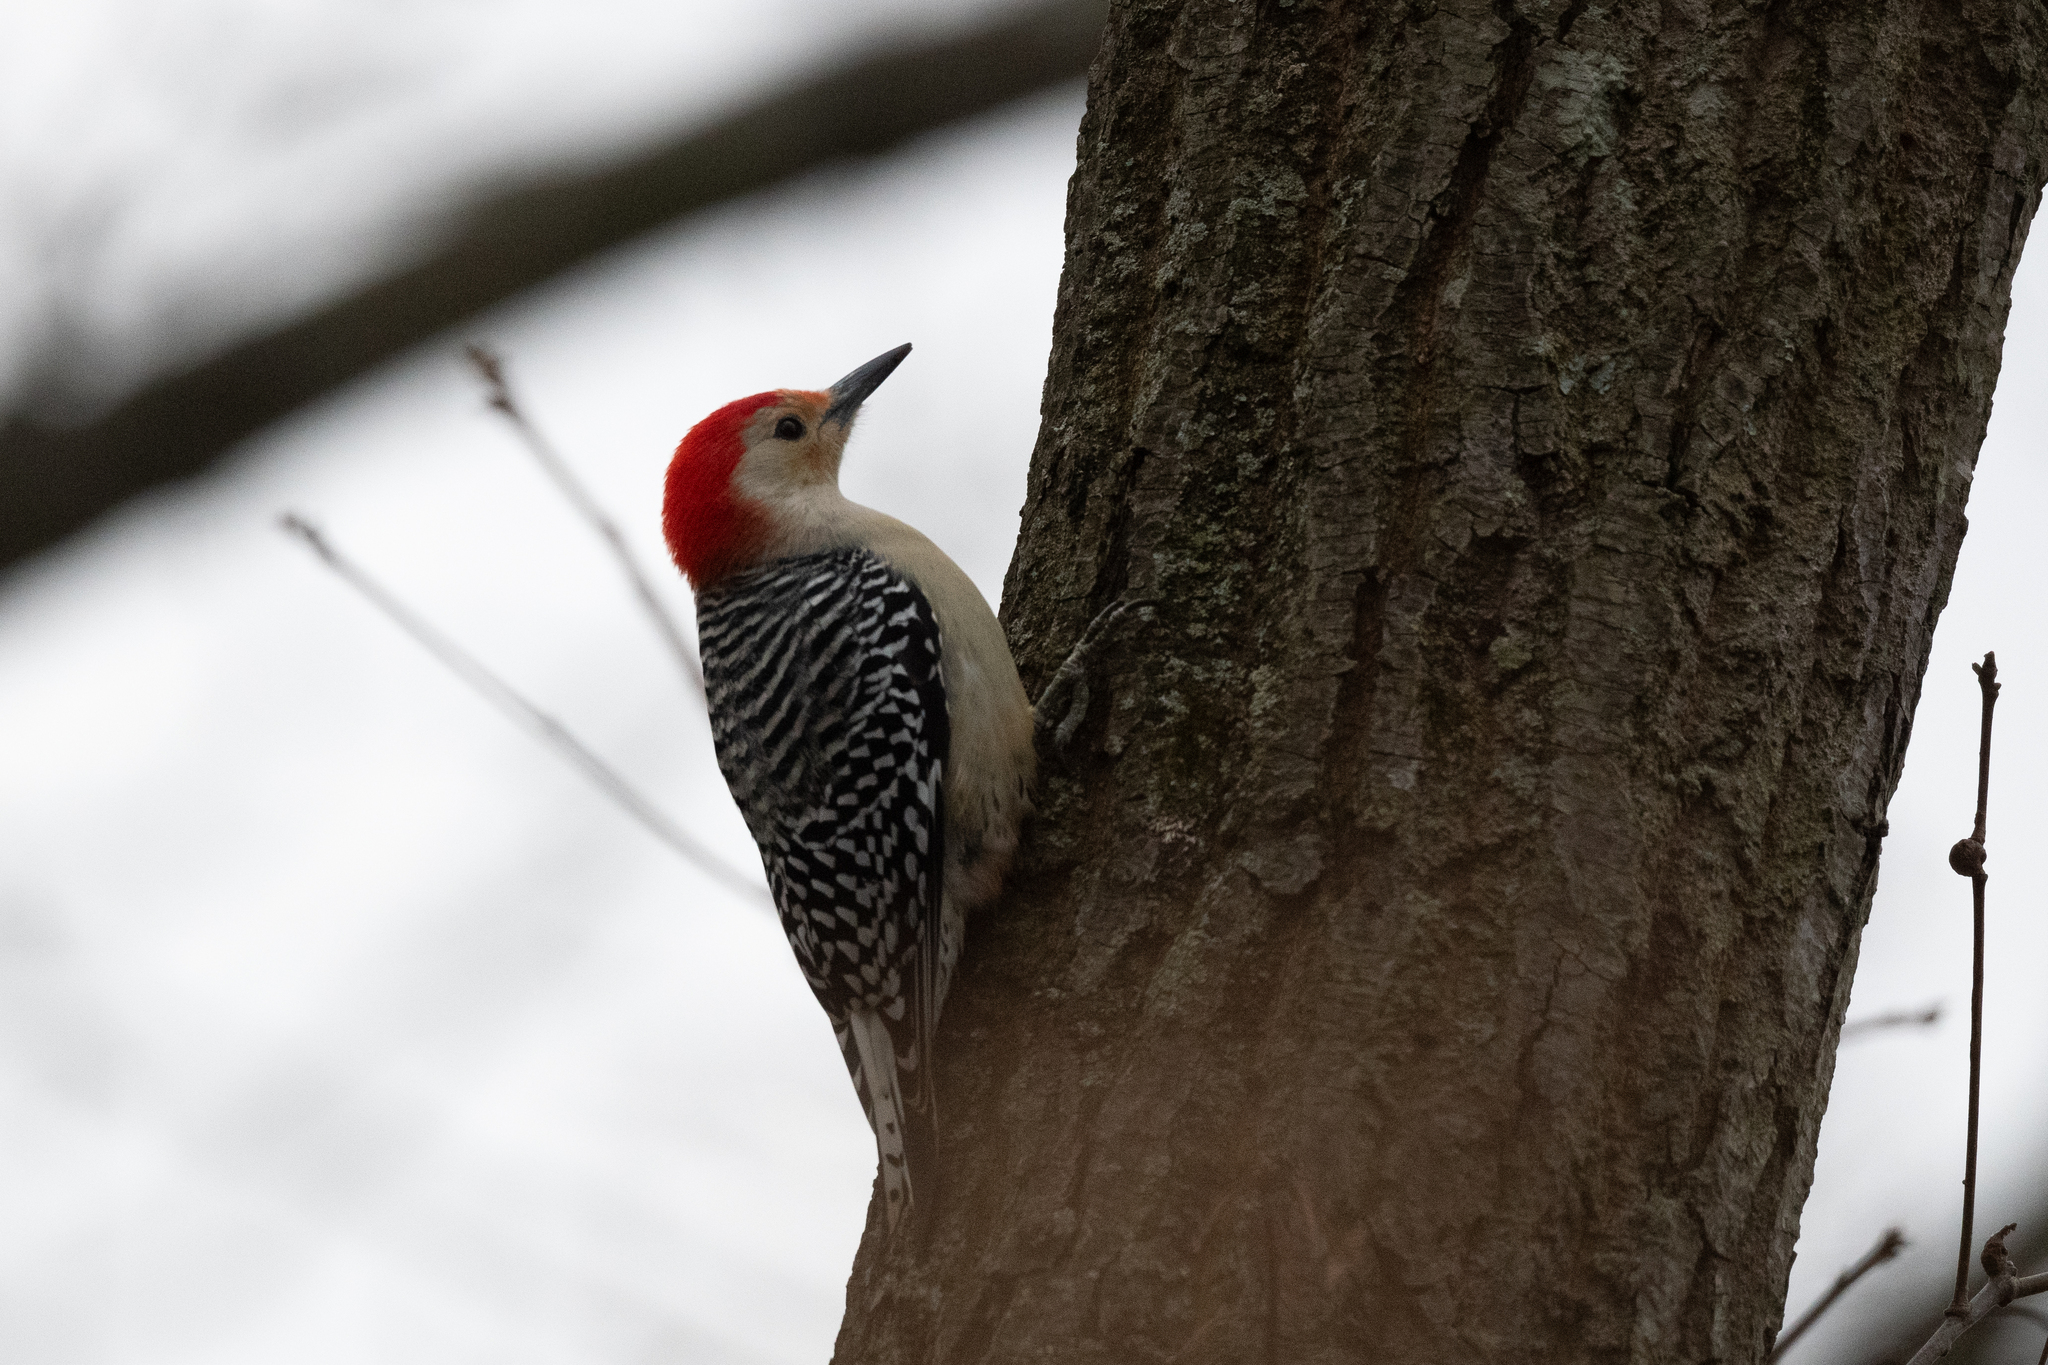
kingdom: Animalia
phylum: Chordata
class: Aves
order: Piciformes
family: Picidae
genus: Melanerpes
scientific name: Melanerpes carolinus
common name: Red-bellied woodpecker
